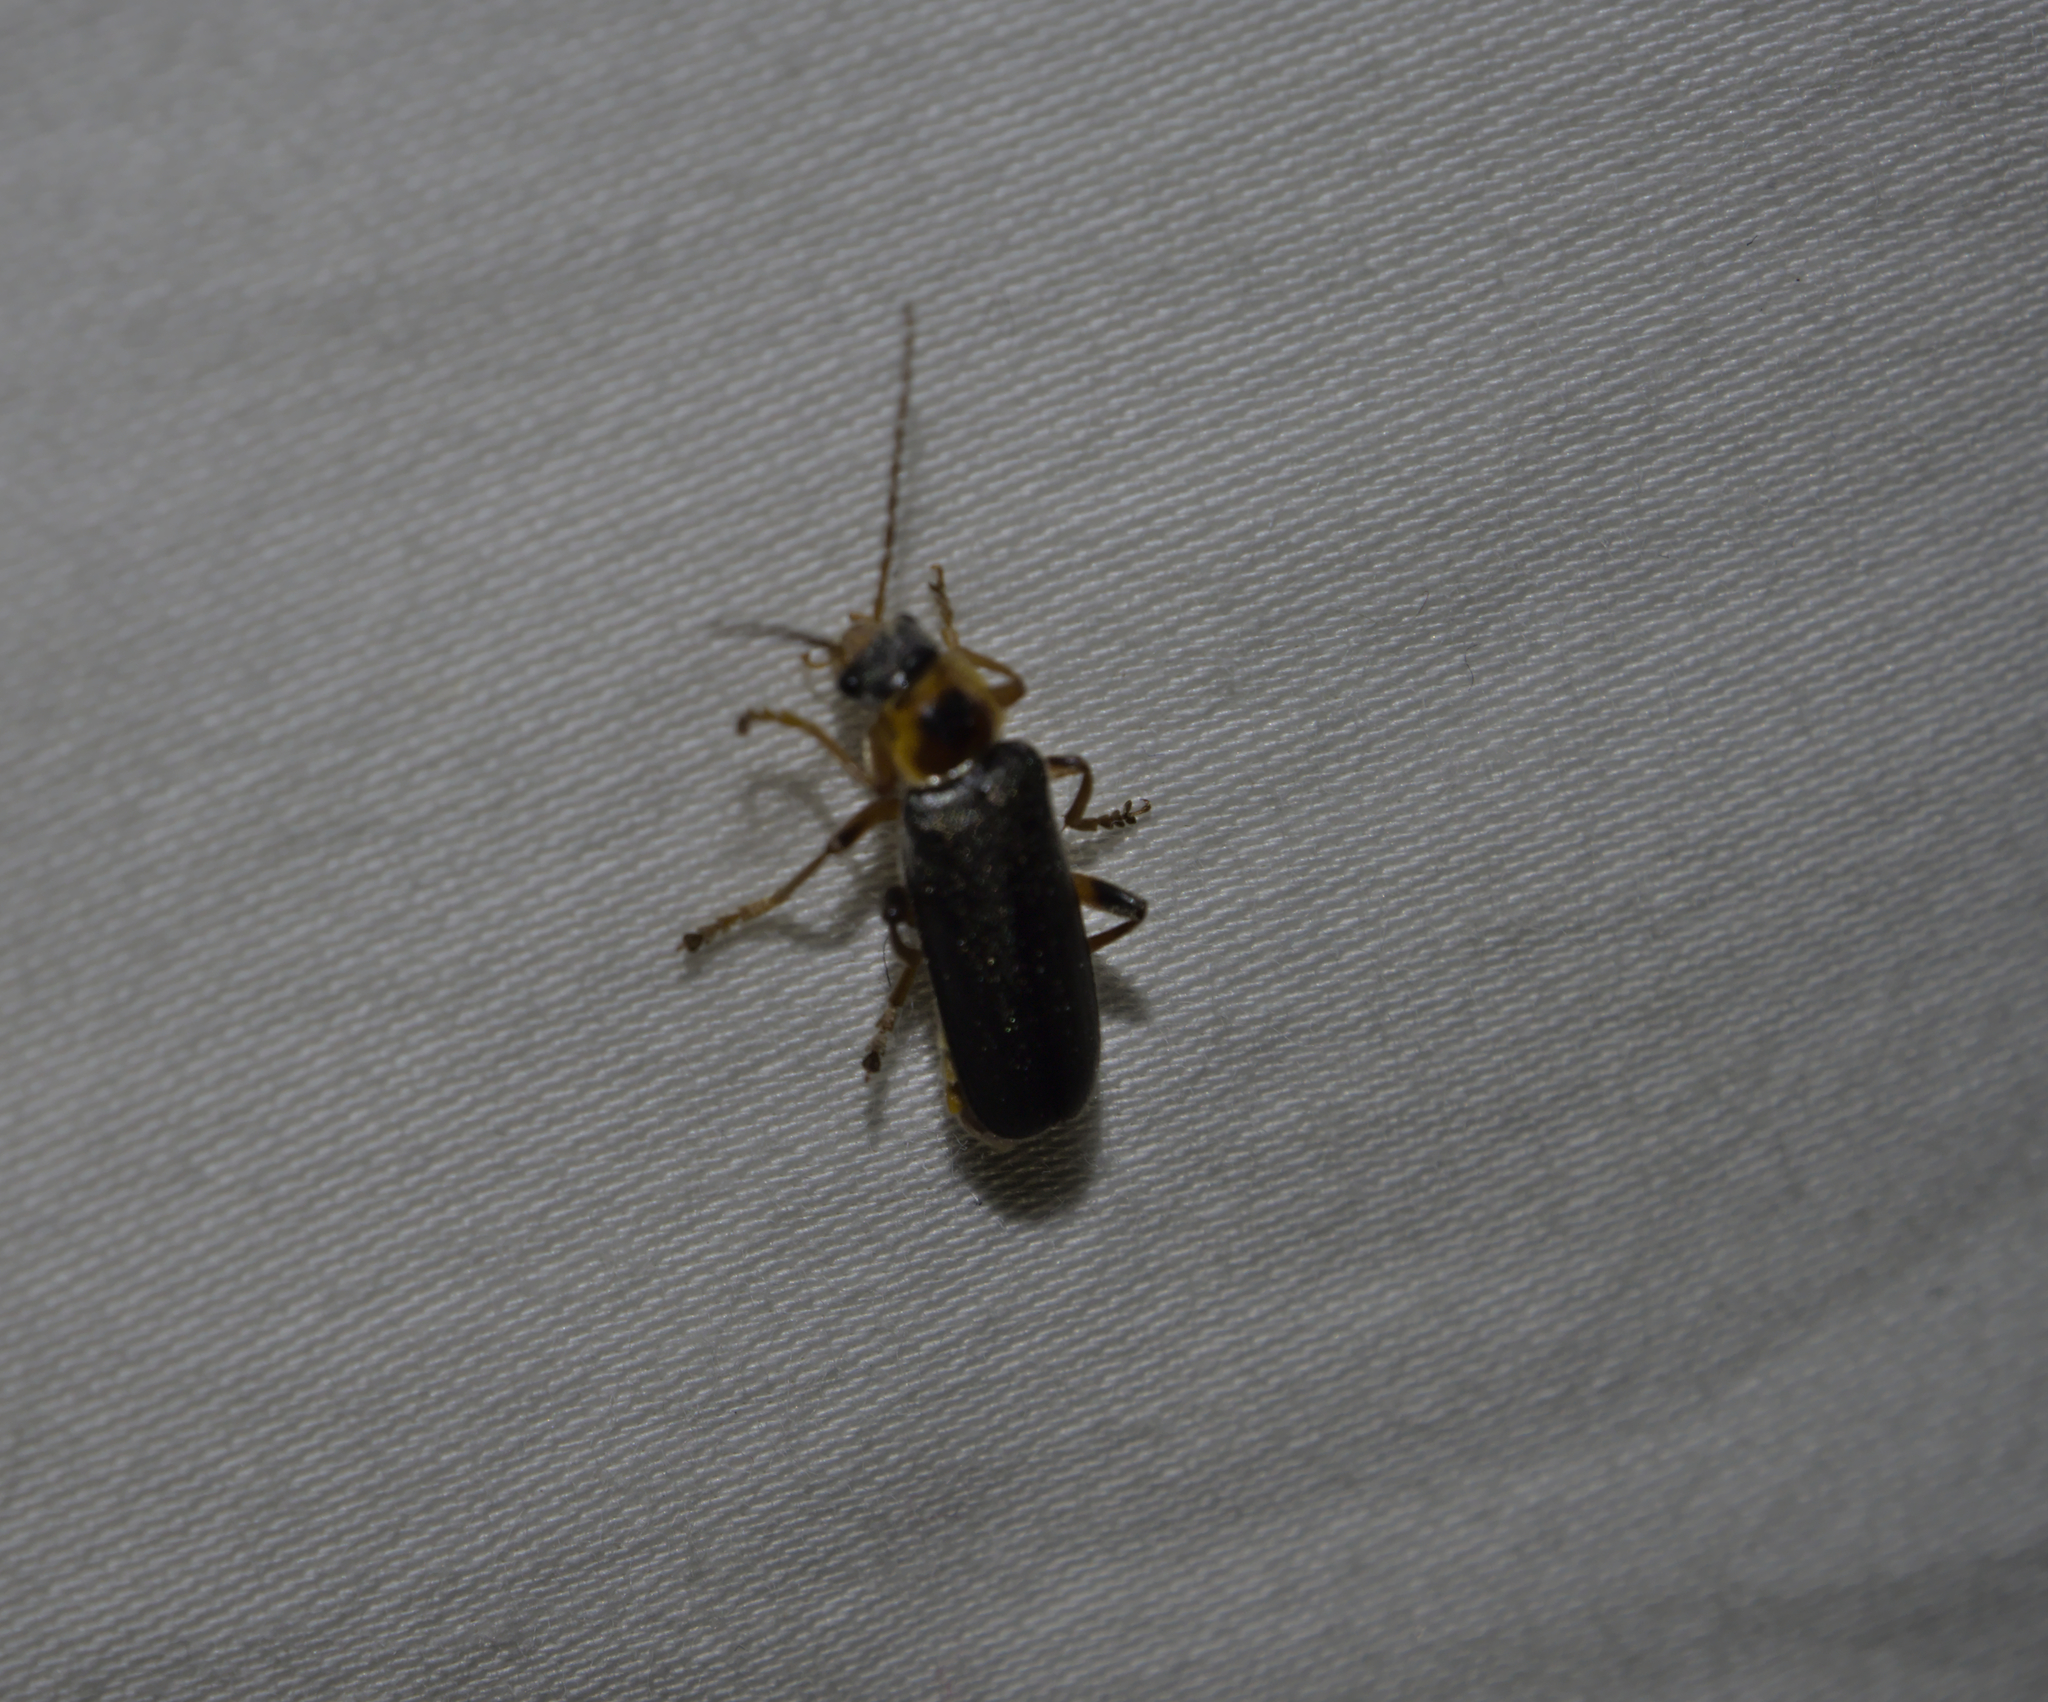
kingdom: Animalia
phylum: Arthropoda
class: Insecta
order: Coleoptera
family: Cantharidae
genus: Cantharis
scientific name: Cantharis nigricans
